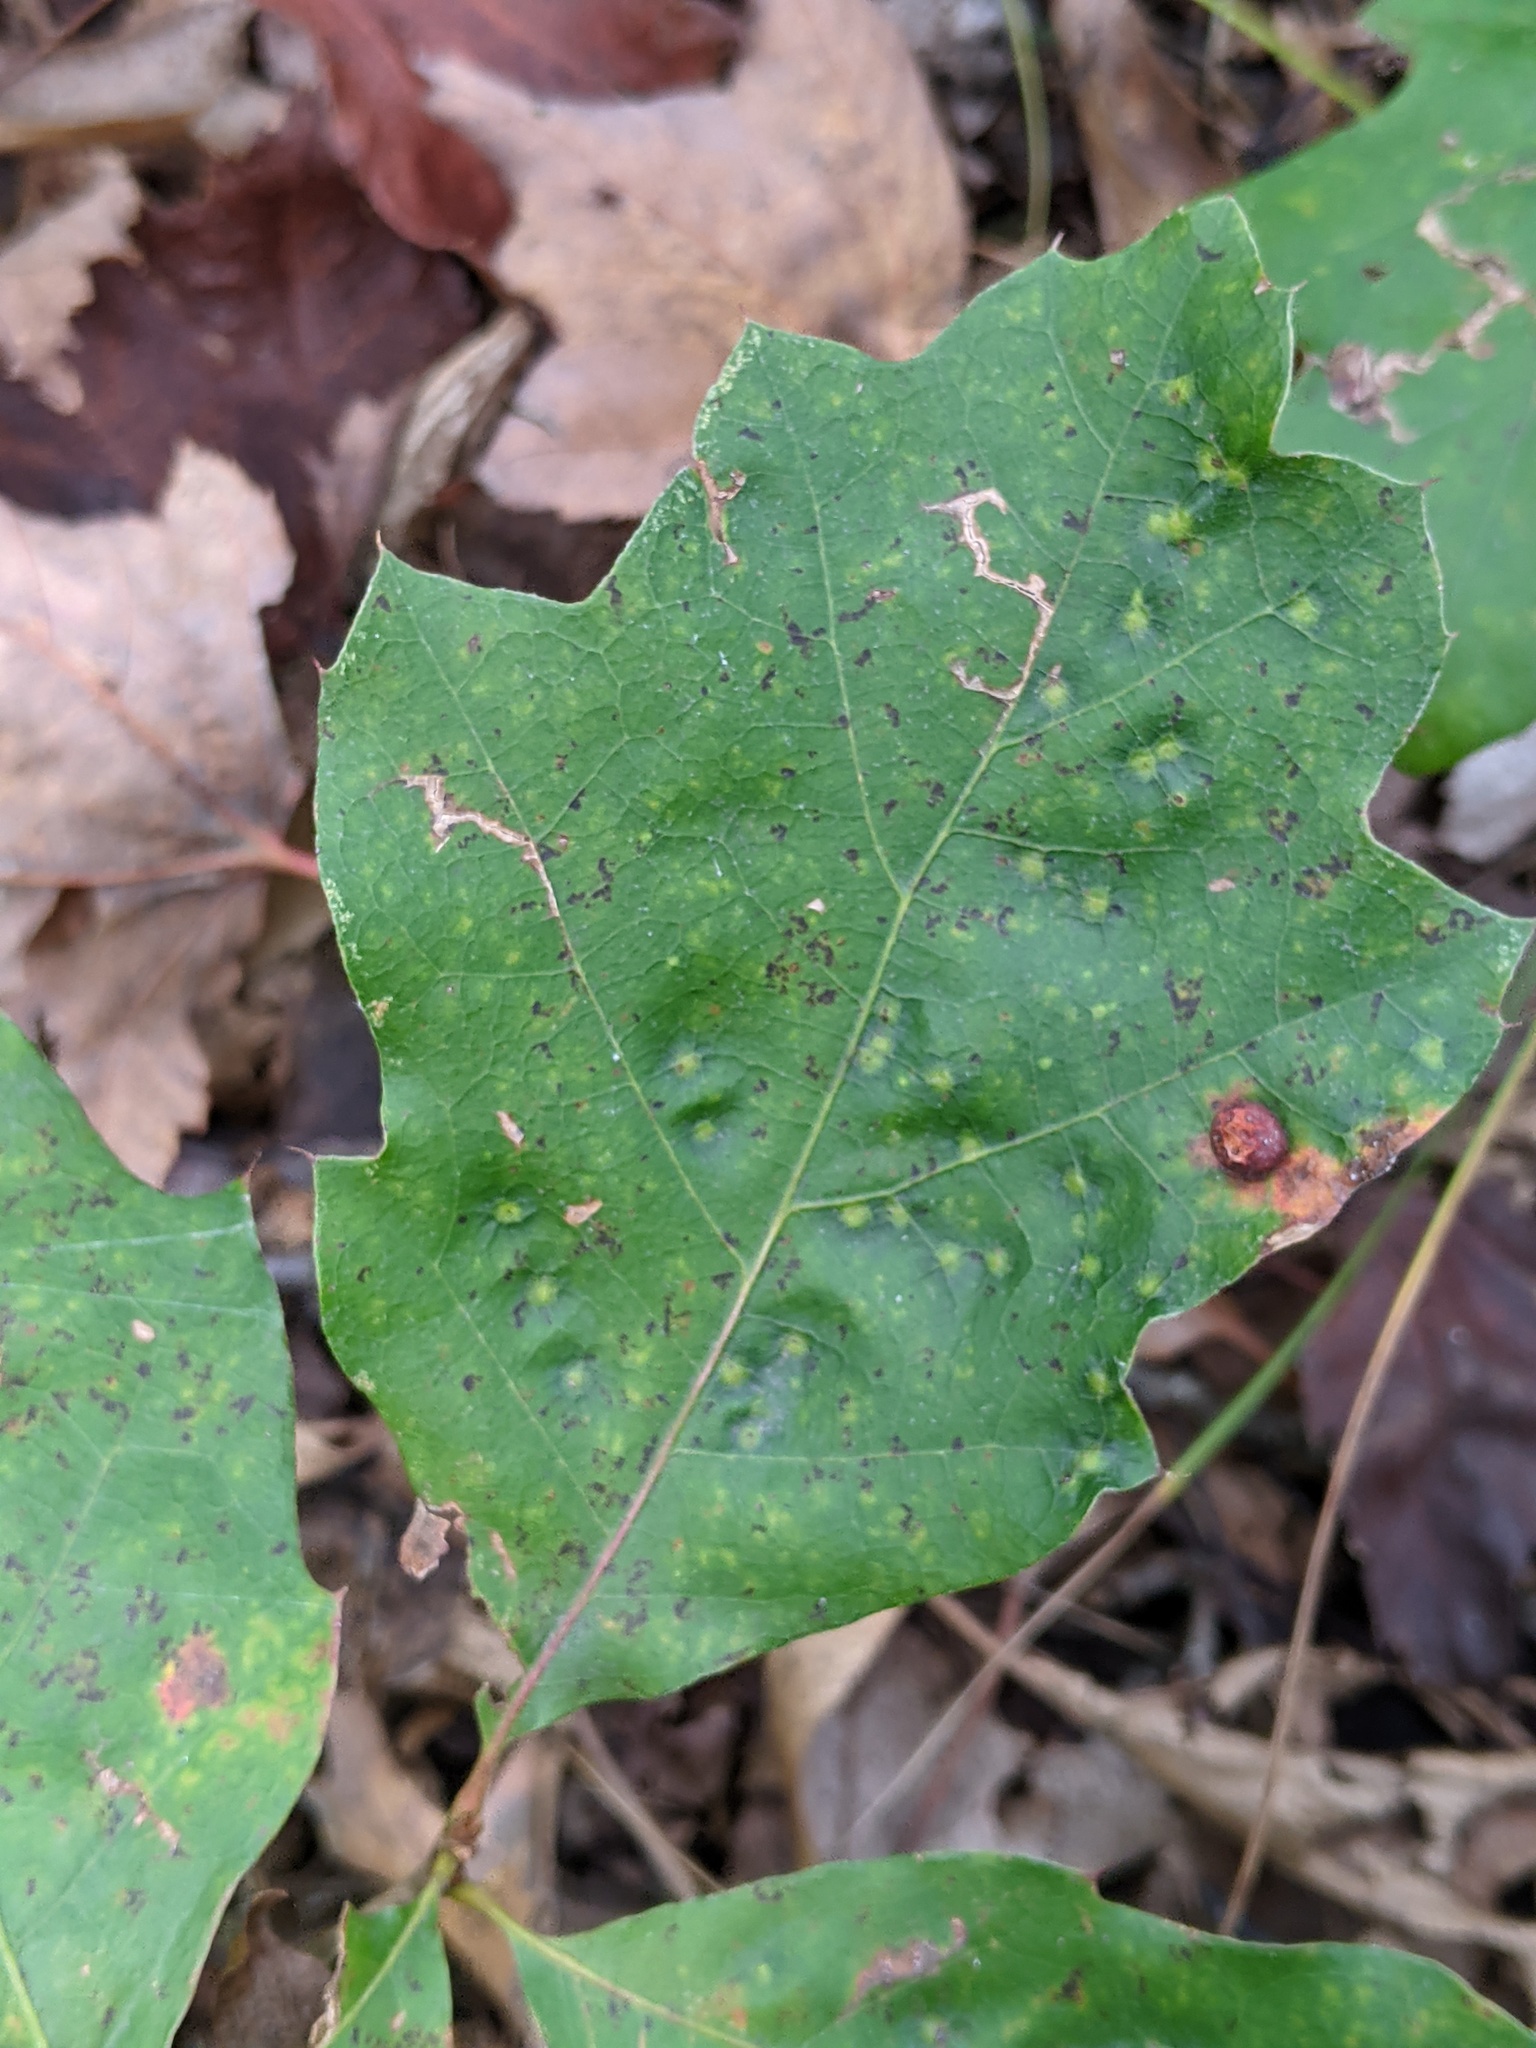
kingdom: Plantae
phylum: Tracheophyta
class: Magnoliopsida
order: Fagales
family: Fagaceae
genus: Quercus
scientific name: Quercus velutina
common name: Black oak
